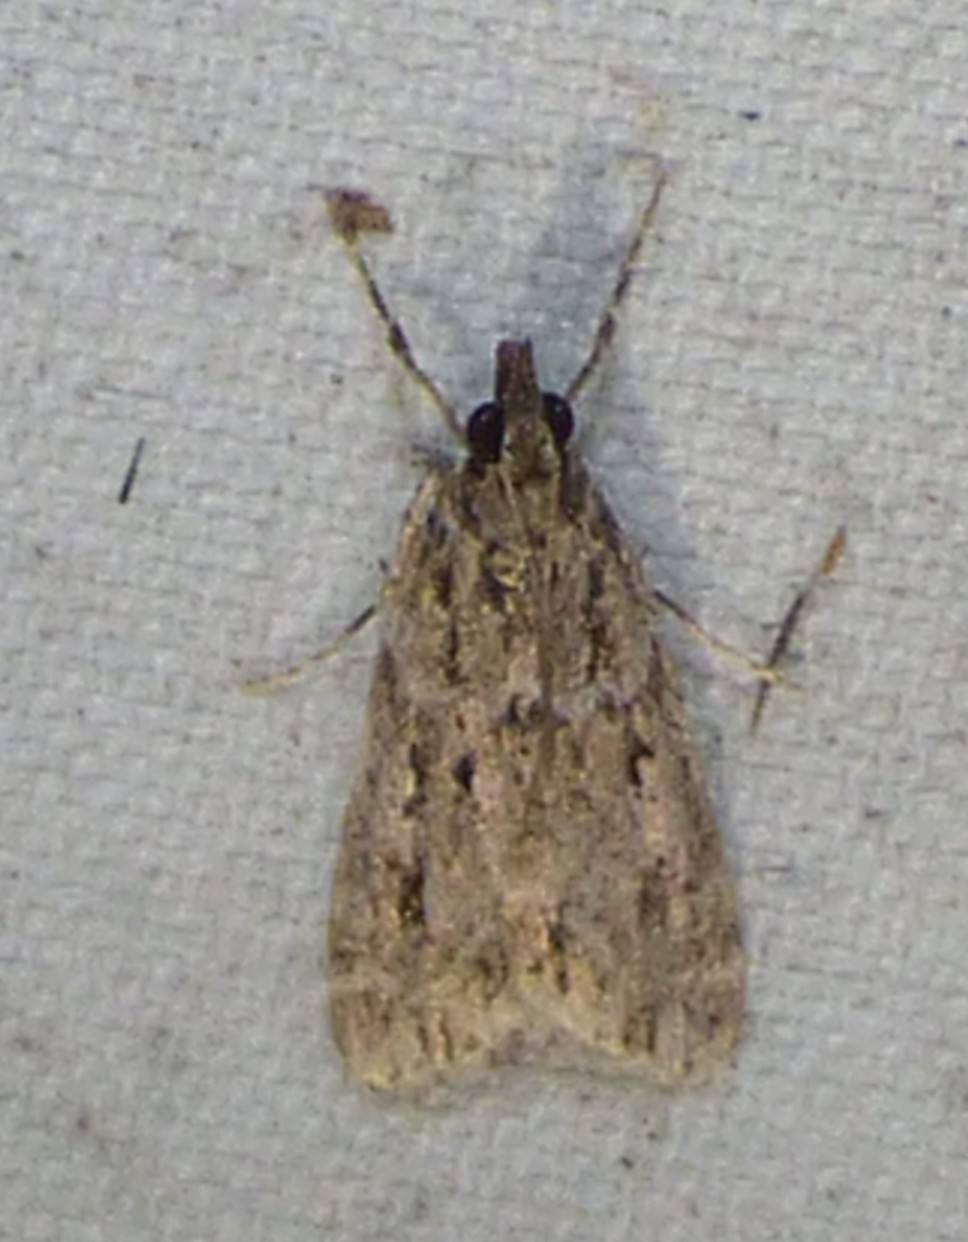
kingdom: Animalia
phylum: Arthropoda
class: Insecta
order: Lepidoptera
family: Crambidae
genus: Eudonia
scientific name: Eudonia heterosalis
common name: Mcdunnough's eudonia
